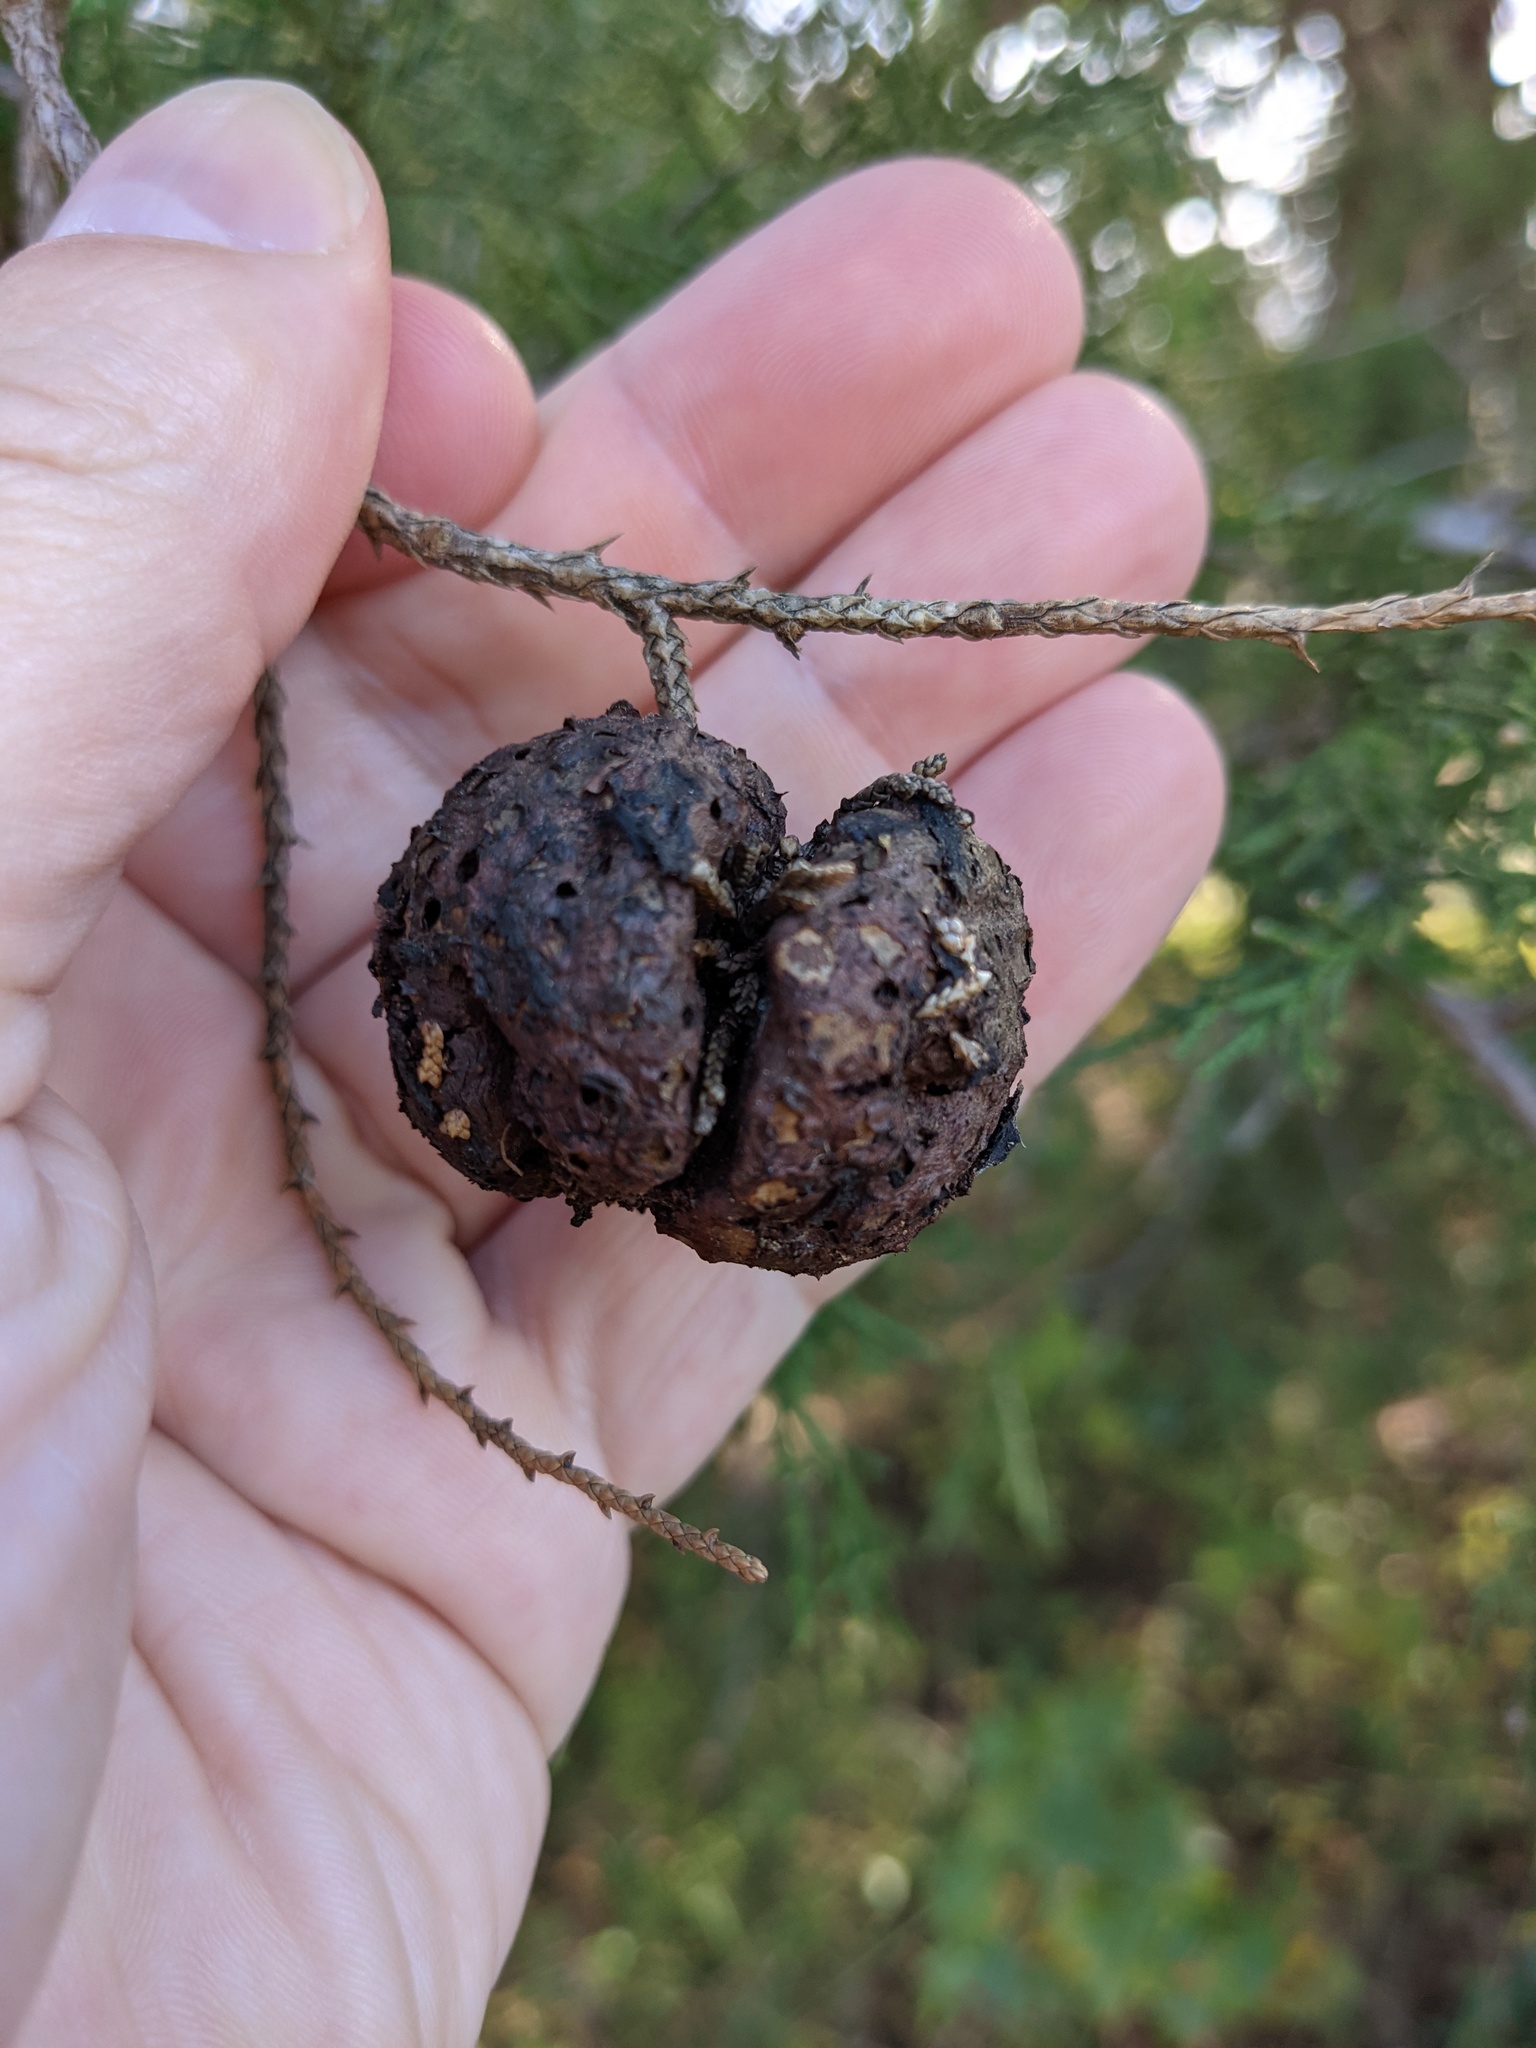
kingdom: Fungi
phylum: Basidiomycota
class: Pucciniomycetes
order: Pucciniales
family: Gymnosporangiaceae
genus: Gymnosporangium
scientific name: Gymnosporangium juniperi-virginianae
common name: Juniper-apple rust
